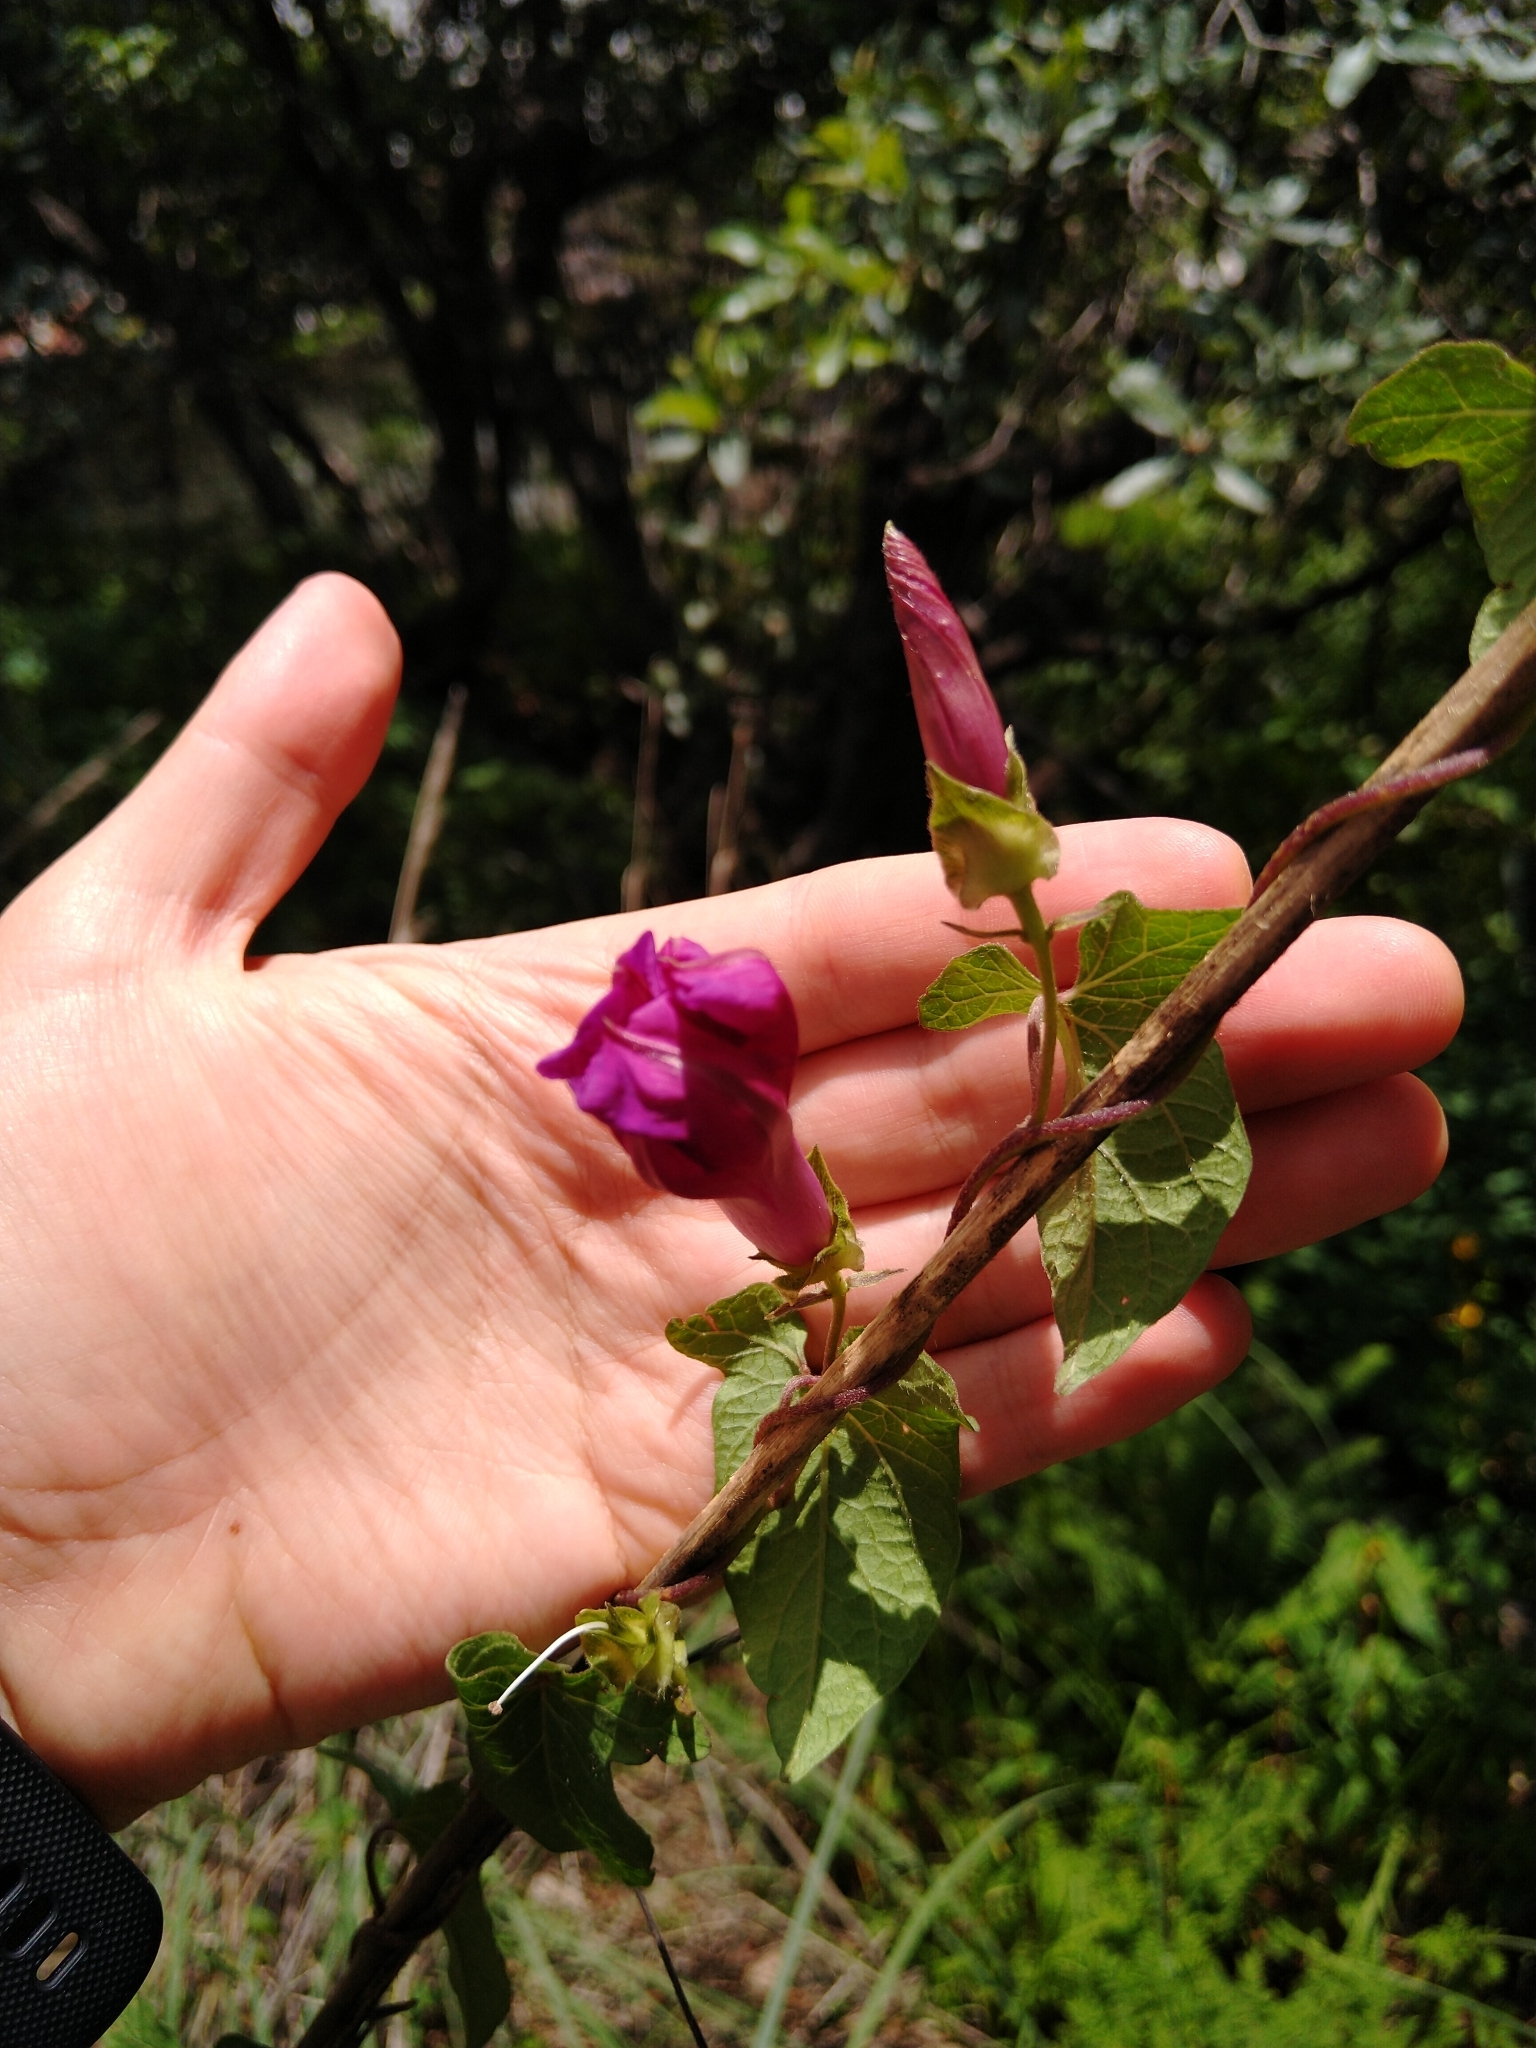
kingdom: Plantae
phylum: Tracheophyta
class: Magnoliopsida
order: Solanales
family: Convolvulaceae
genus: Ipomoea
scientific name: Ipomoea decasperma
